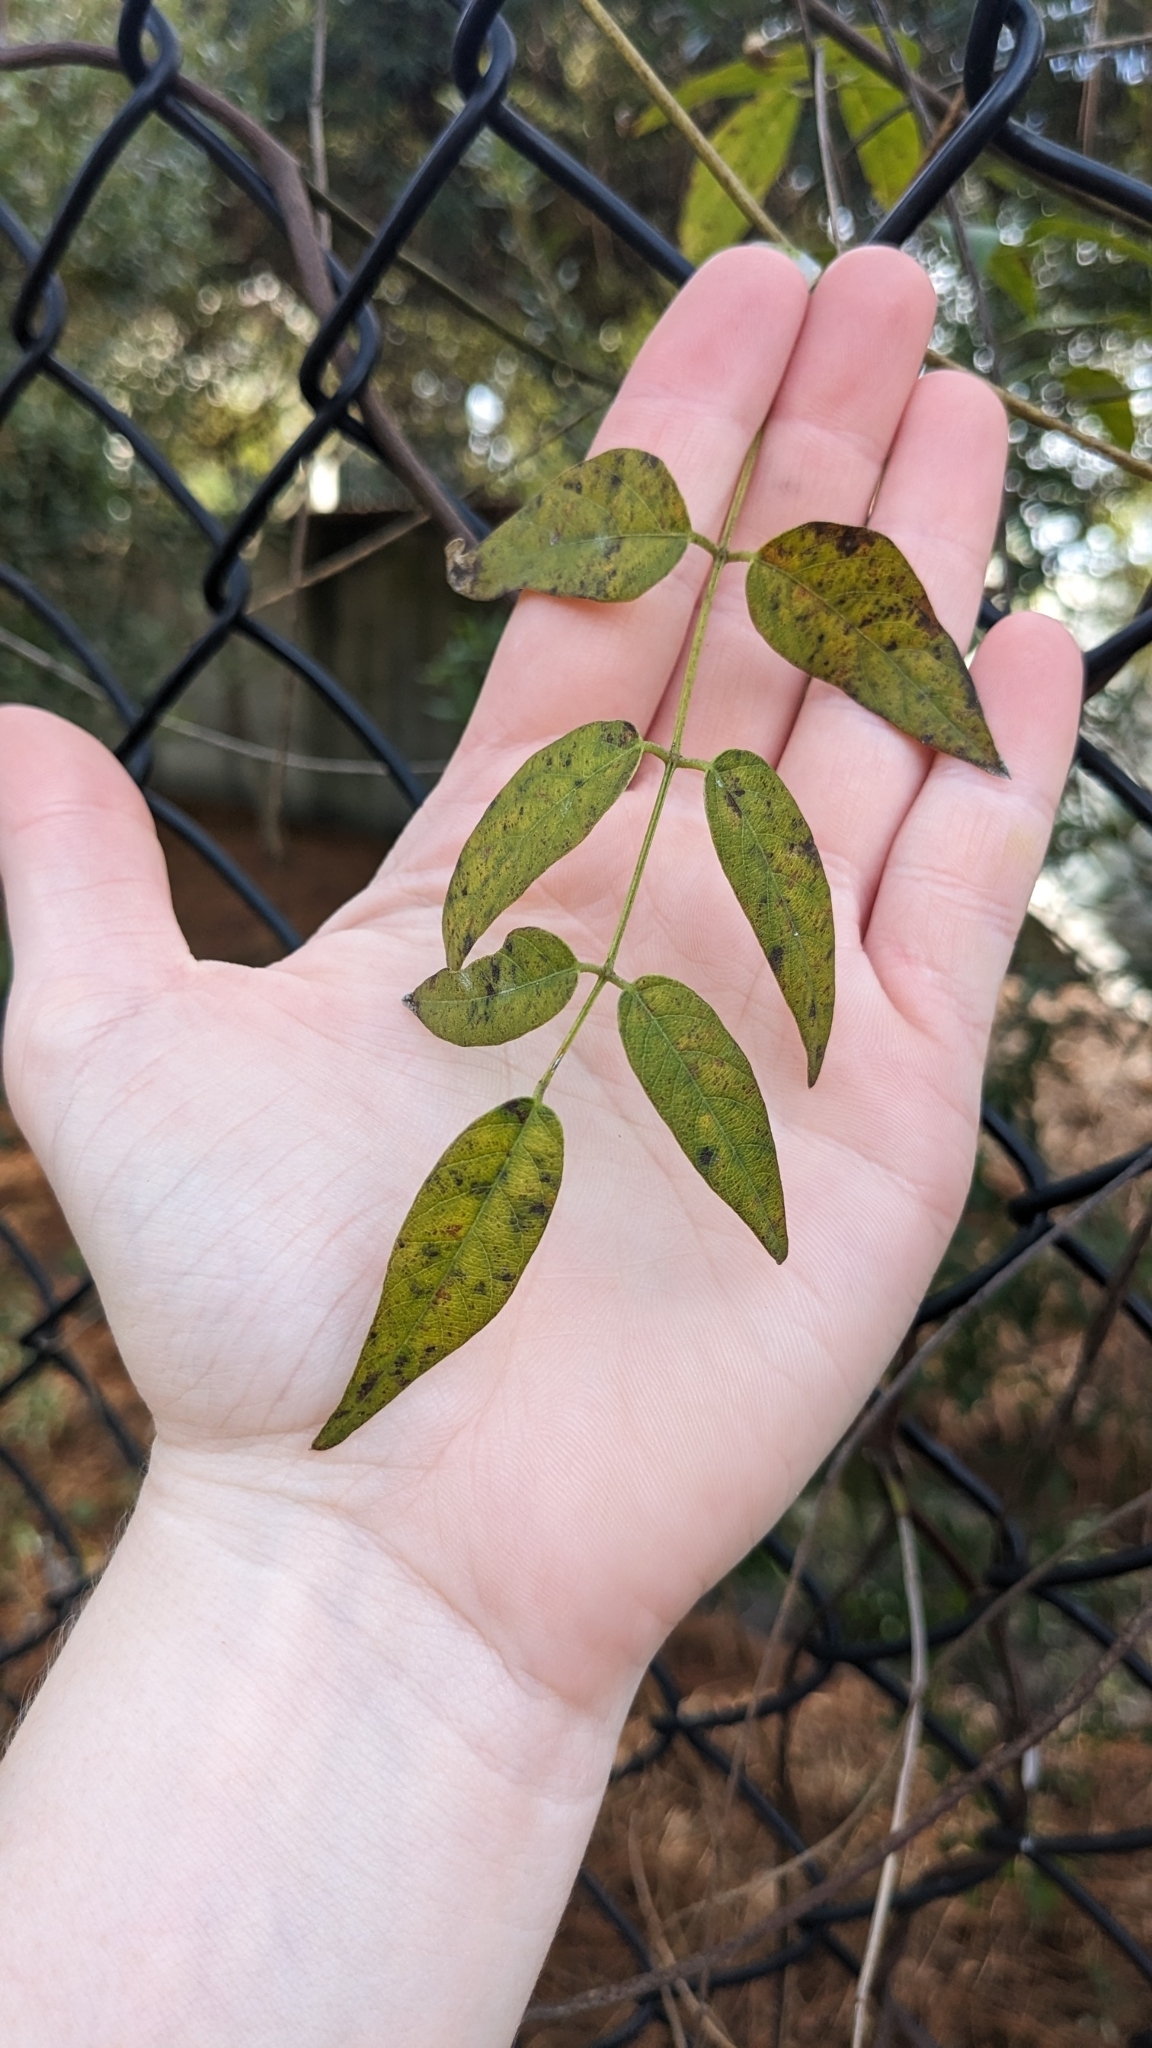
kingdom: Plantae
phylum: Tracheophyta
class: Magnoliopsida
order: Fabales
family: Fabaceae
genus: Apios
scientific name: Apios americana
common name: American potato-bean
